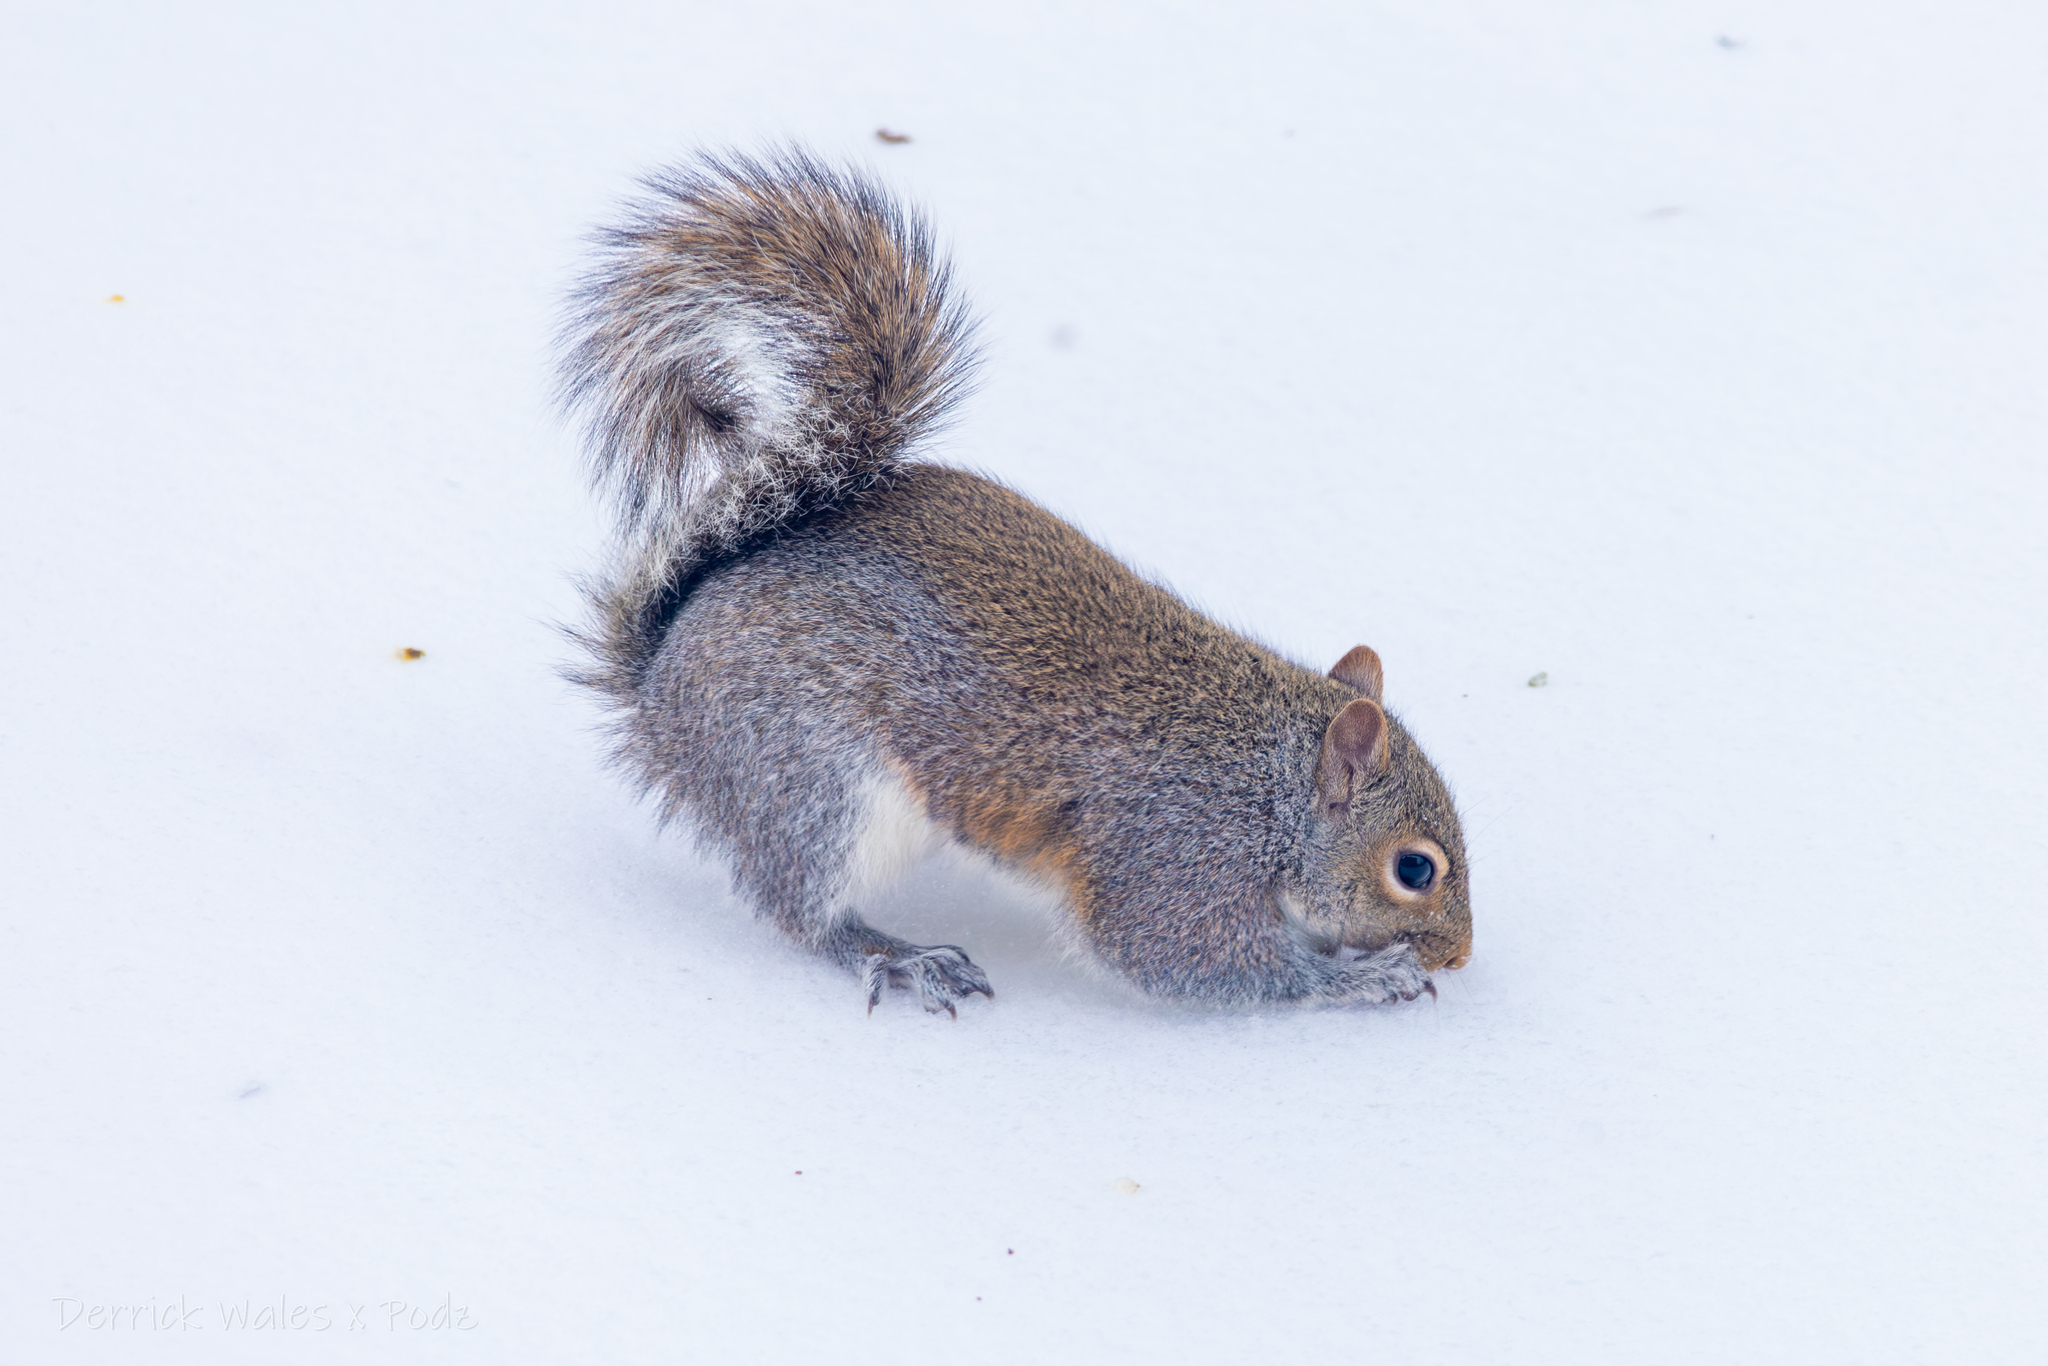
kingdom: Animalia
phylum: Chordata
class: Mammalia
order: Rodentia
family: Sciuridae
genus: Sciurus
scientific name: Sciurus carolinensis
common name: Eastern gray squirrel
